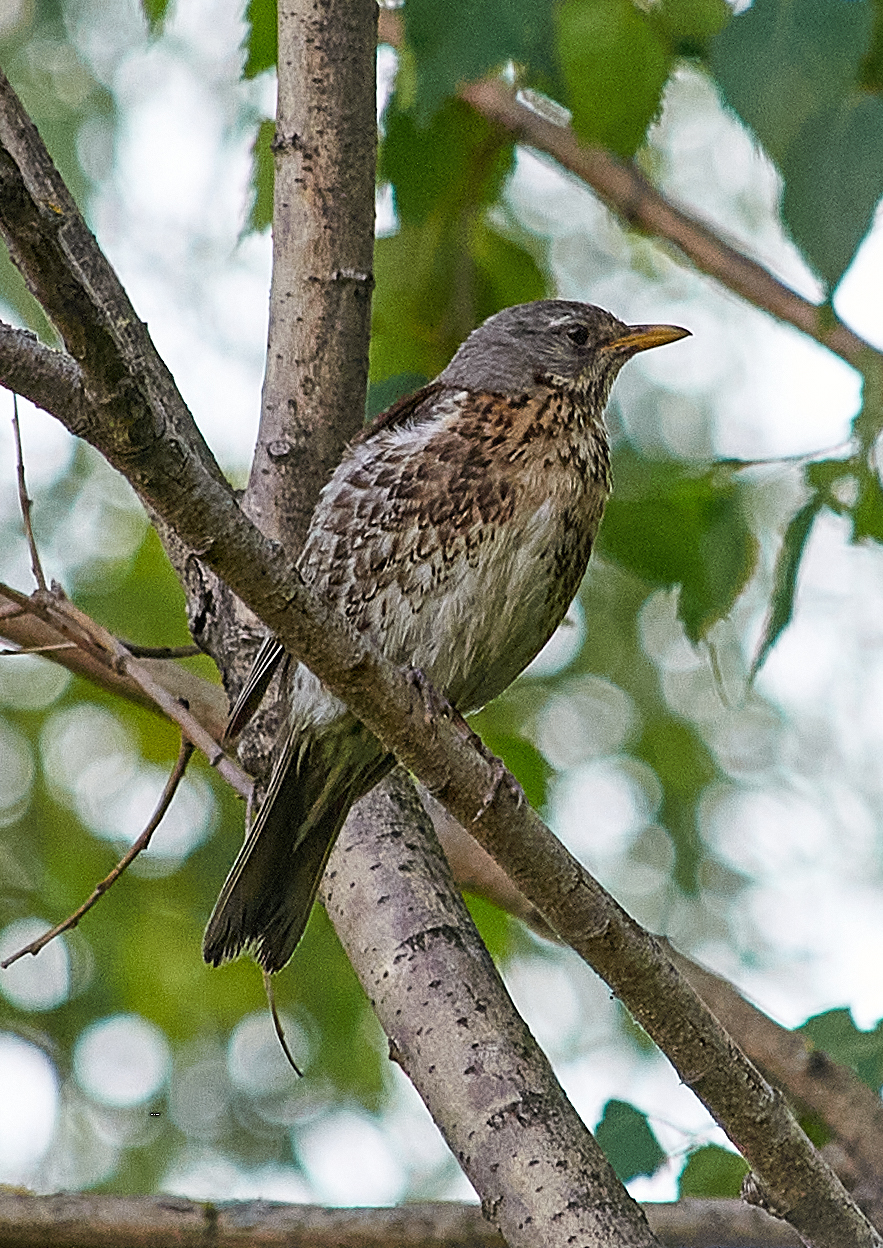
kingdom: Animalia
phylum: Chordata
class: Aves
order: Passeriformes
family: Turdidae
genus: Turdus
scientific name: Turdus pilaris
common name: Fieldfare
